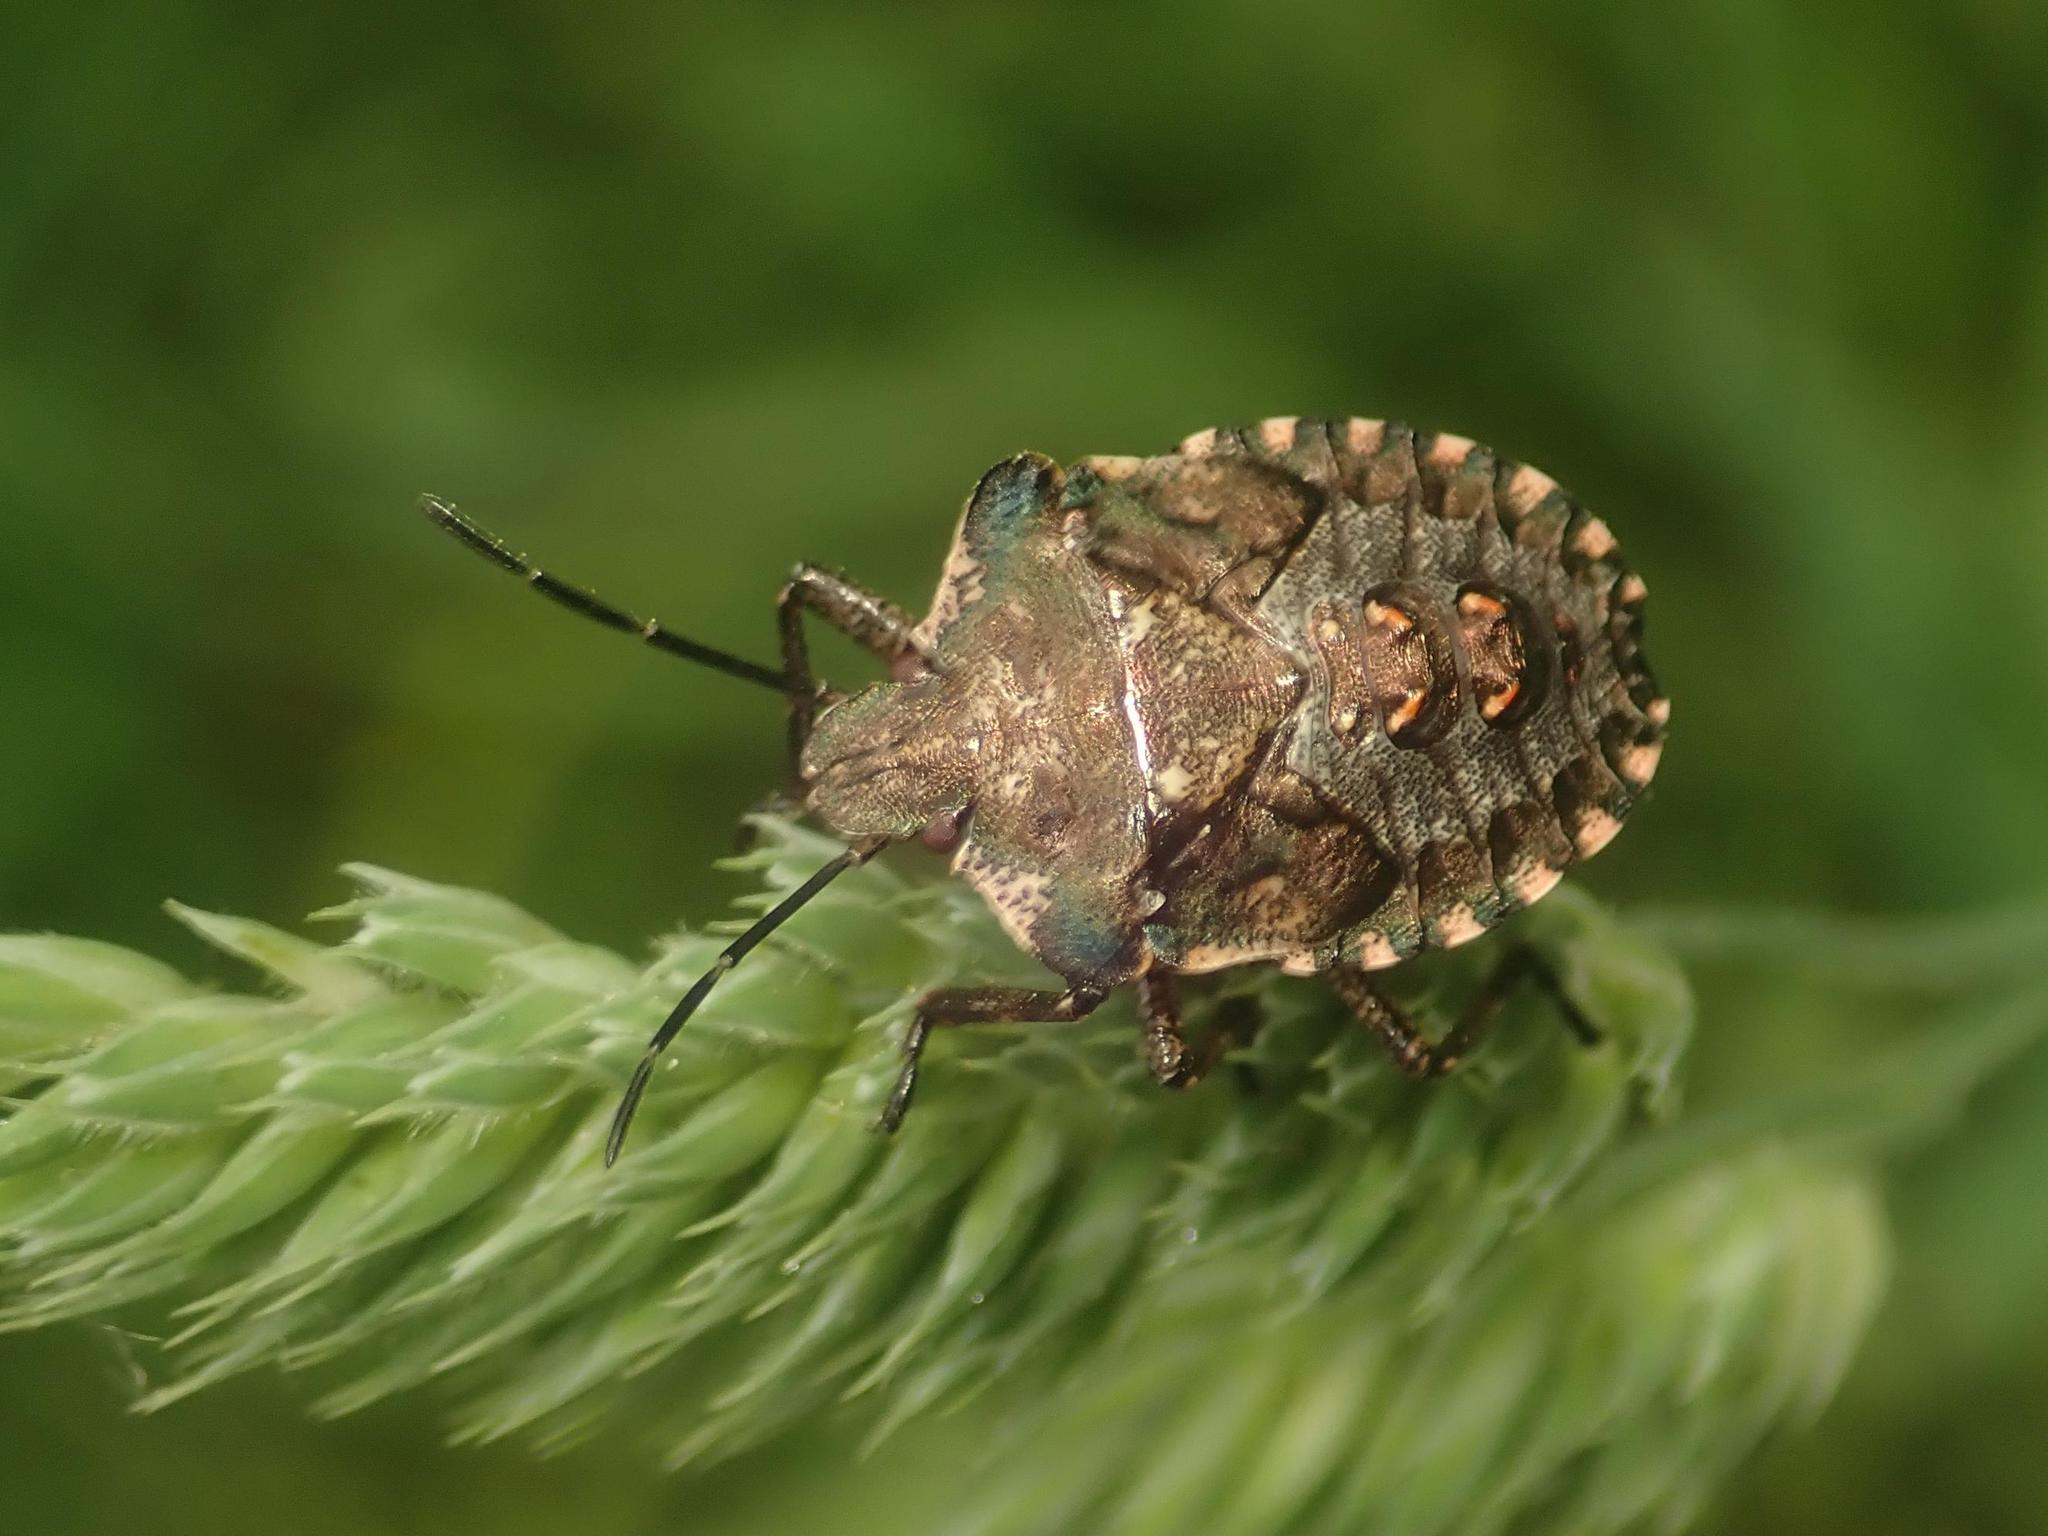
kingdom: Animalia
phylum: Arthropoda
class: Insecta
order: Hemiptera
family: Pentatomidae
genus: Pentatoma
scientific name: Pentatoma rufipes
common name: Forest bug
